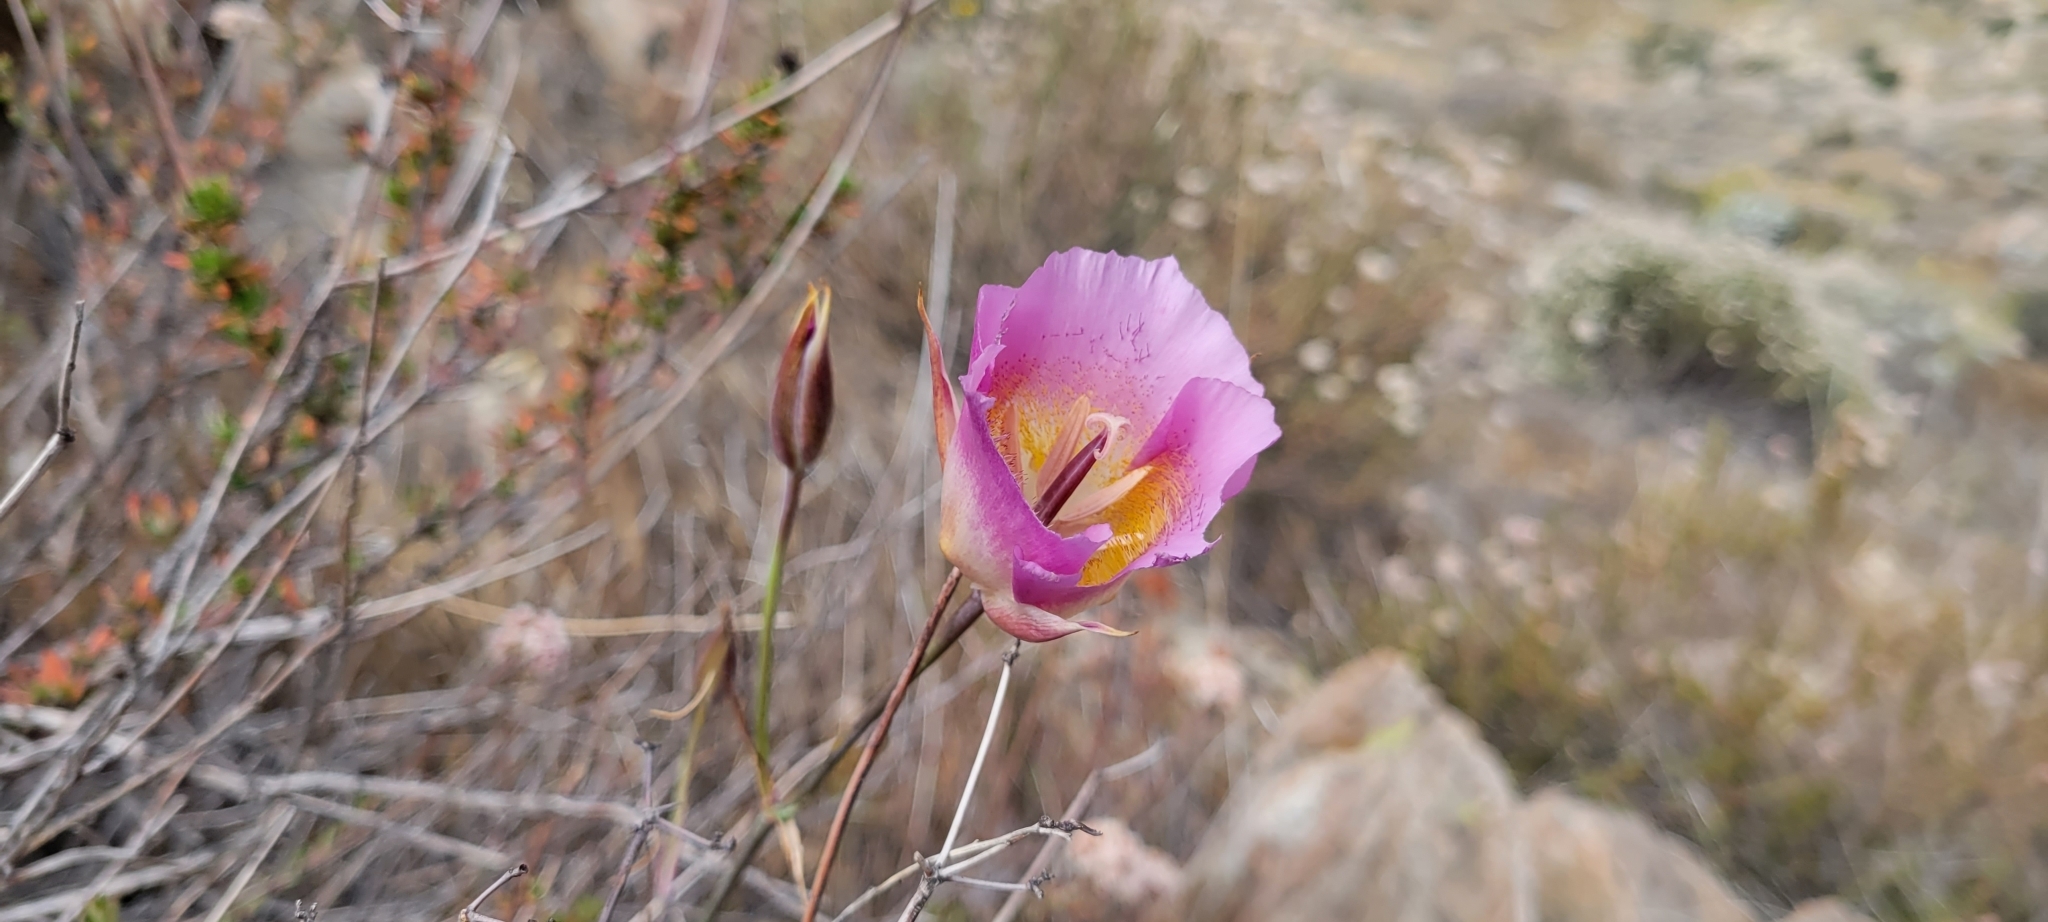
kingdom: Plantae
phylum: Tracheophyta
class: Liliopsida
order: Liliales
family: Liliaceae
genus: Calochortus
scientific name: Calochortus plummerae
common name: Plummer's mariposa-lily
